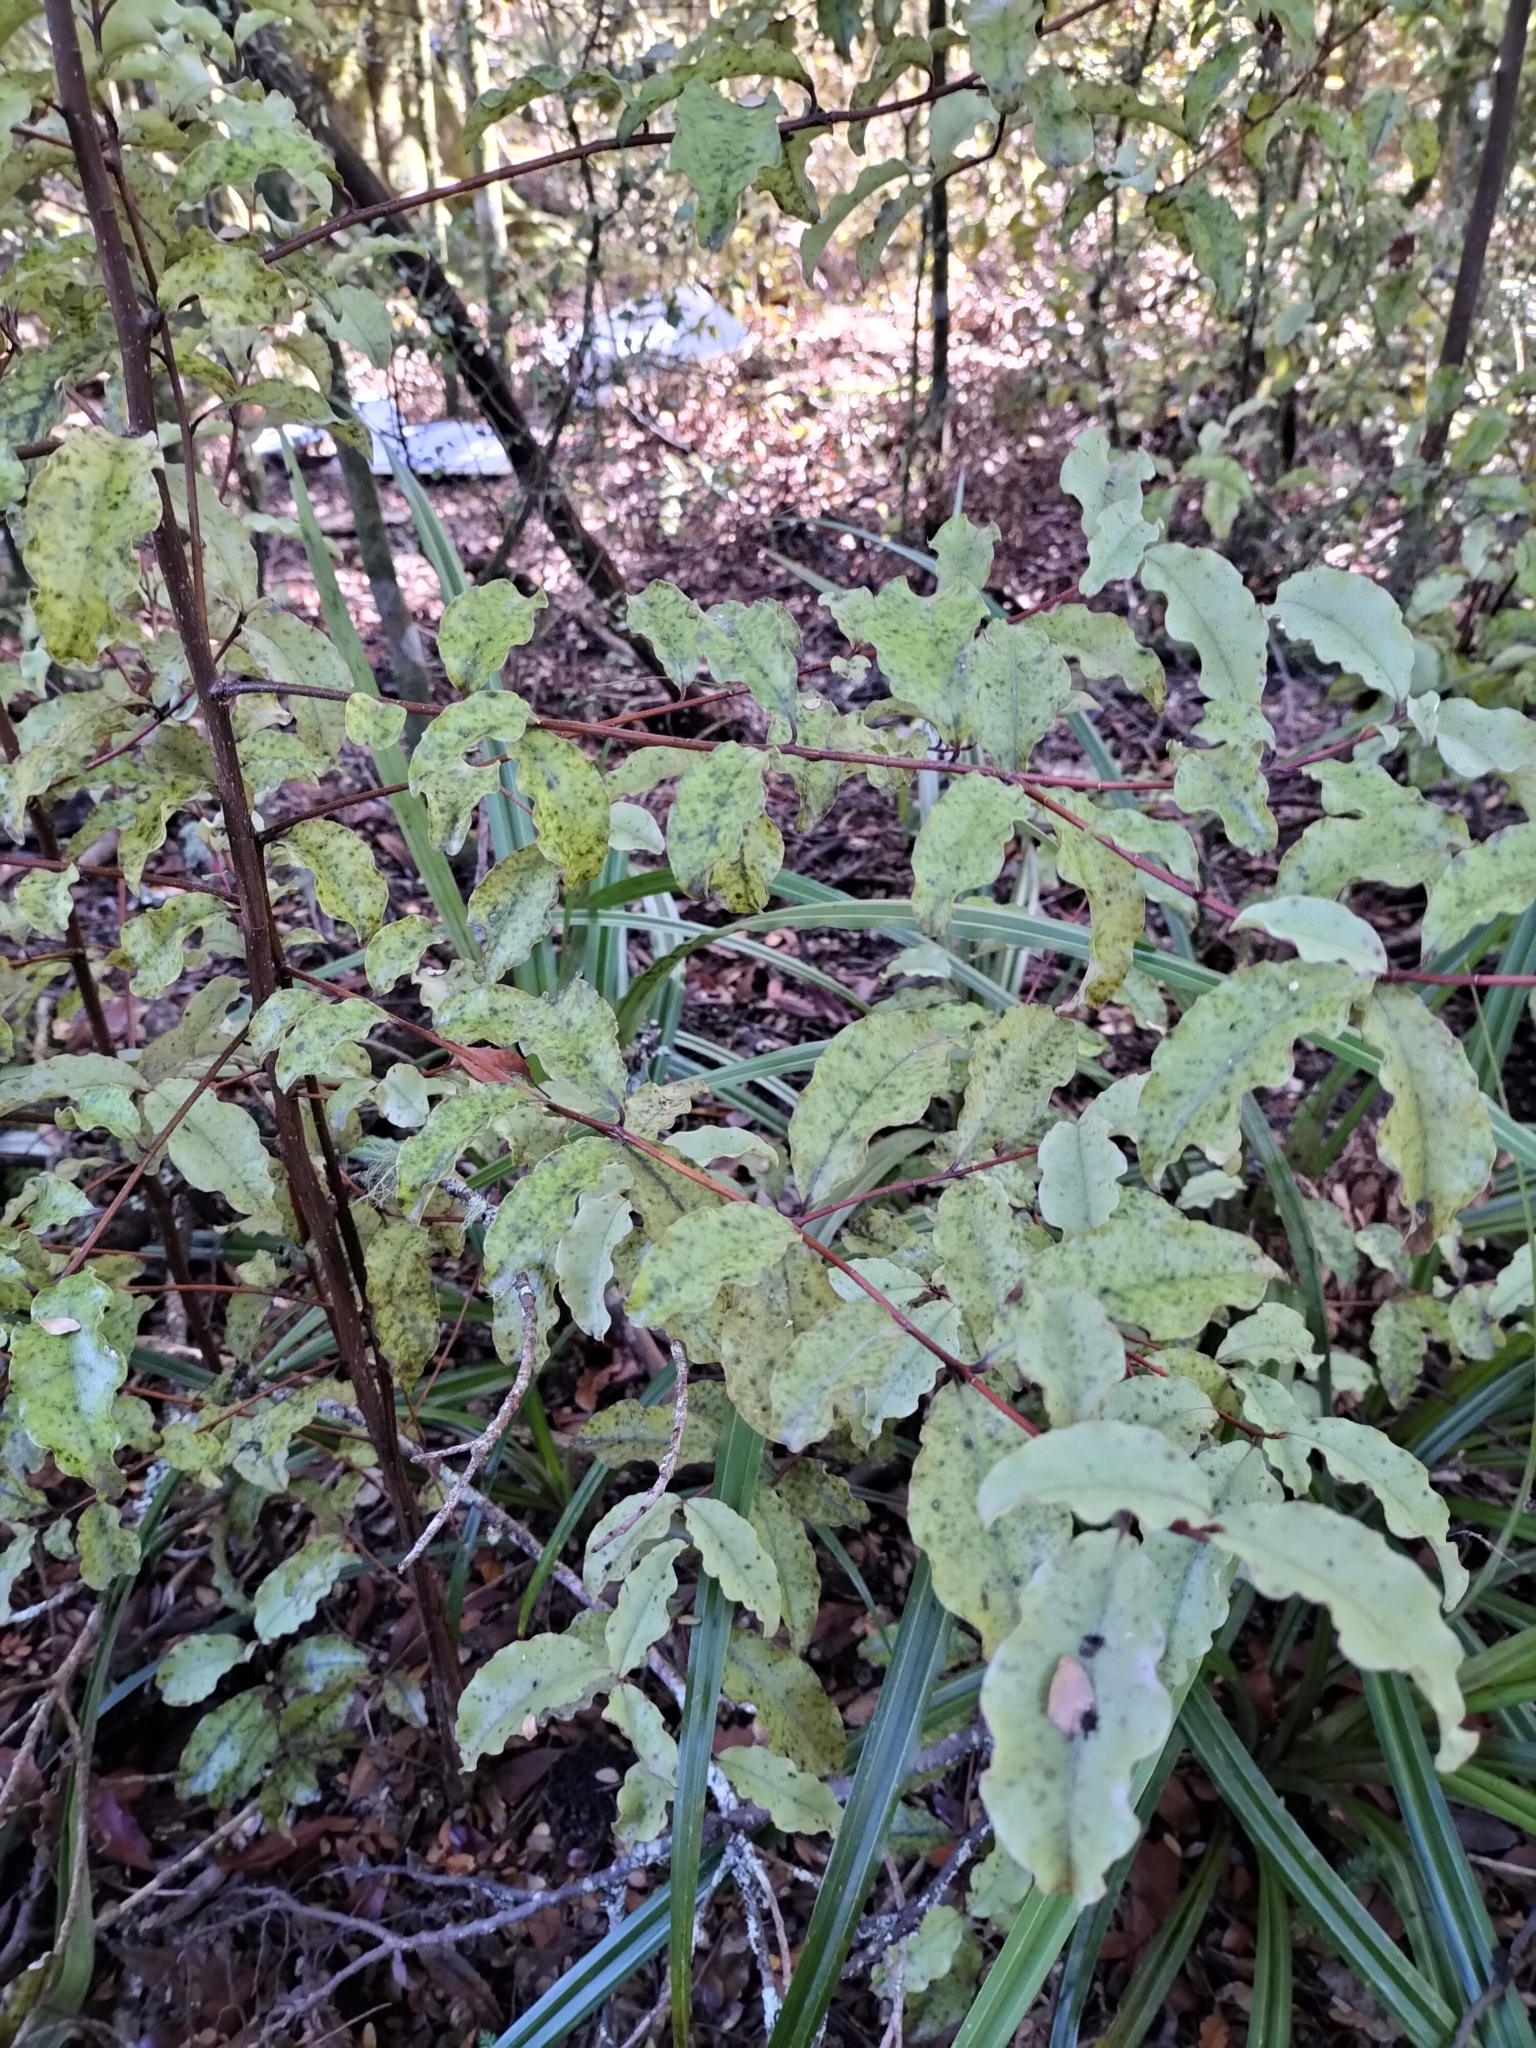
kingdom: Plantae
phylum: Tracheophyta
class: Magnoliopsida
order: Ericales
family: Primulaceae
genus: Myrsine
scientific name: Myrsine australis
